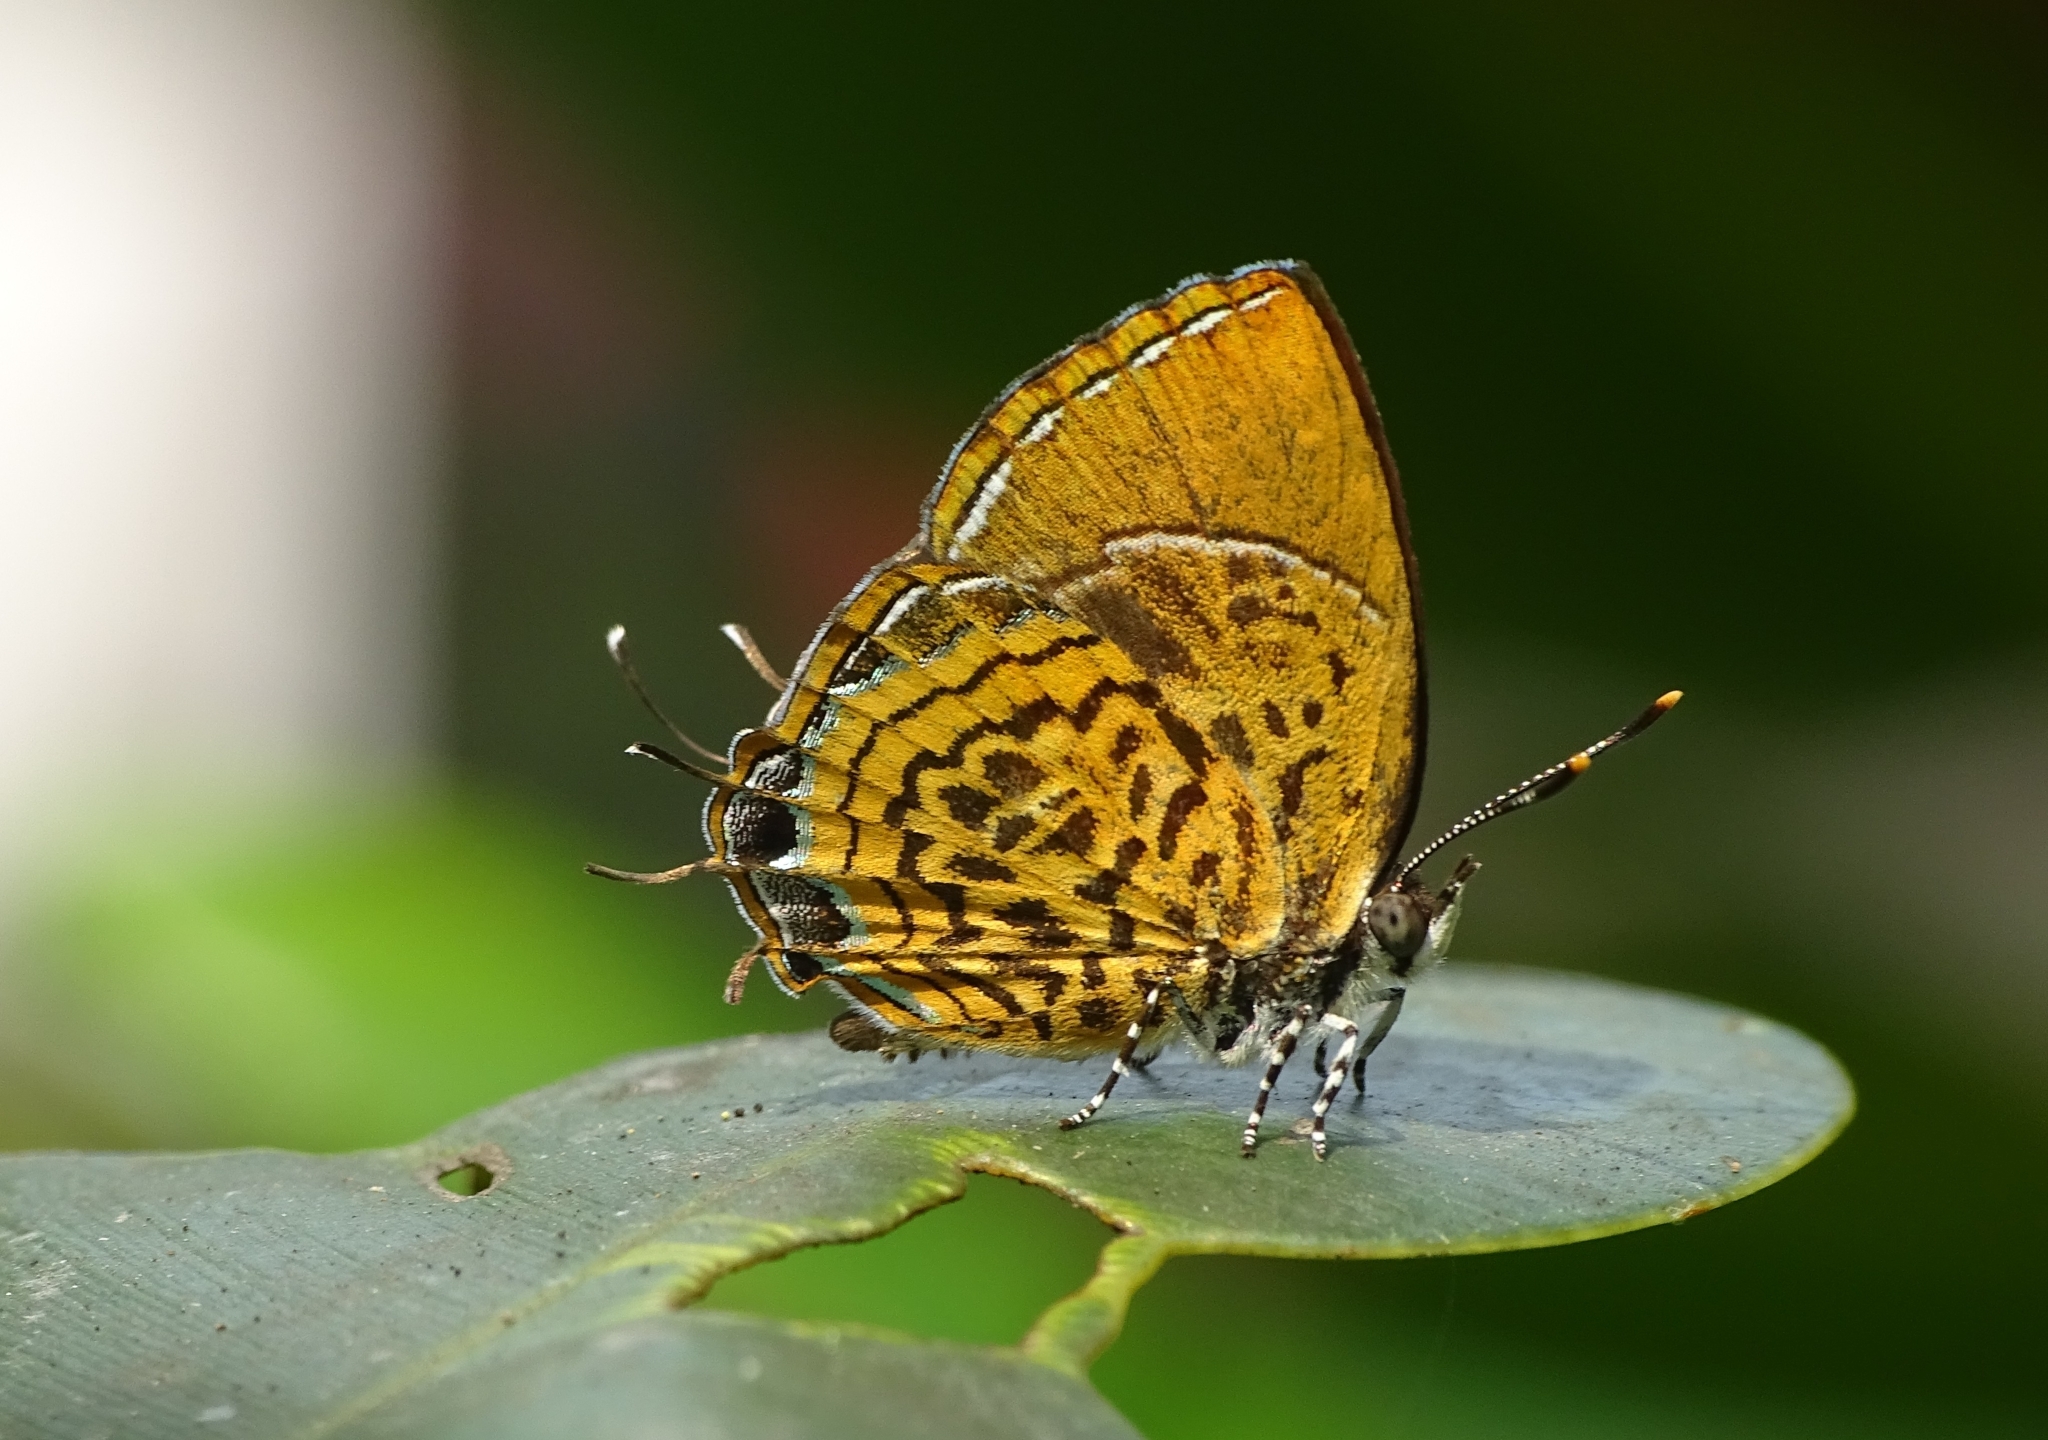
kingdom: Animalia
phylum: Arthropoda
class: Insecta
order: Lepidoptera
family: Lycaenidae
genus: Rathinda
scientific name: Rathinda amor
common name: Monkey puzzle
